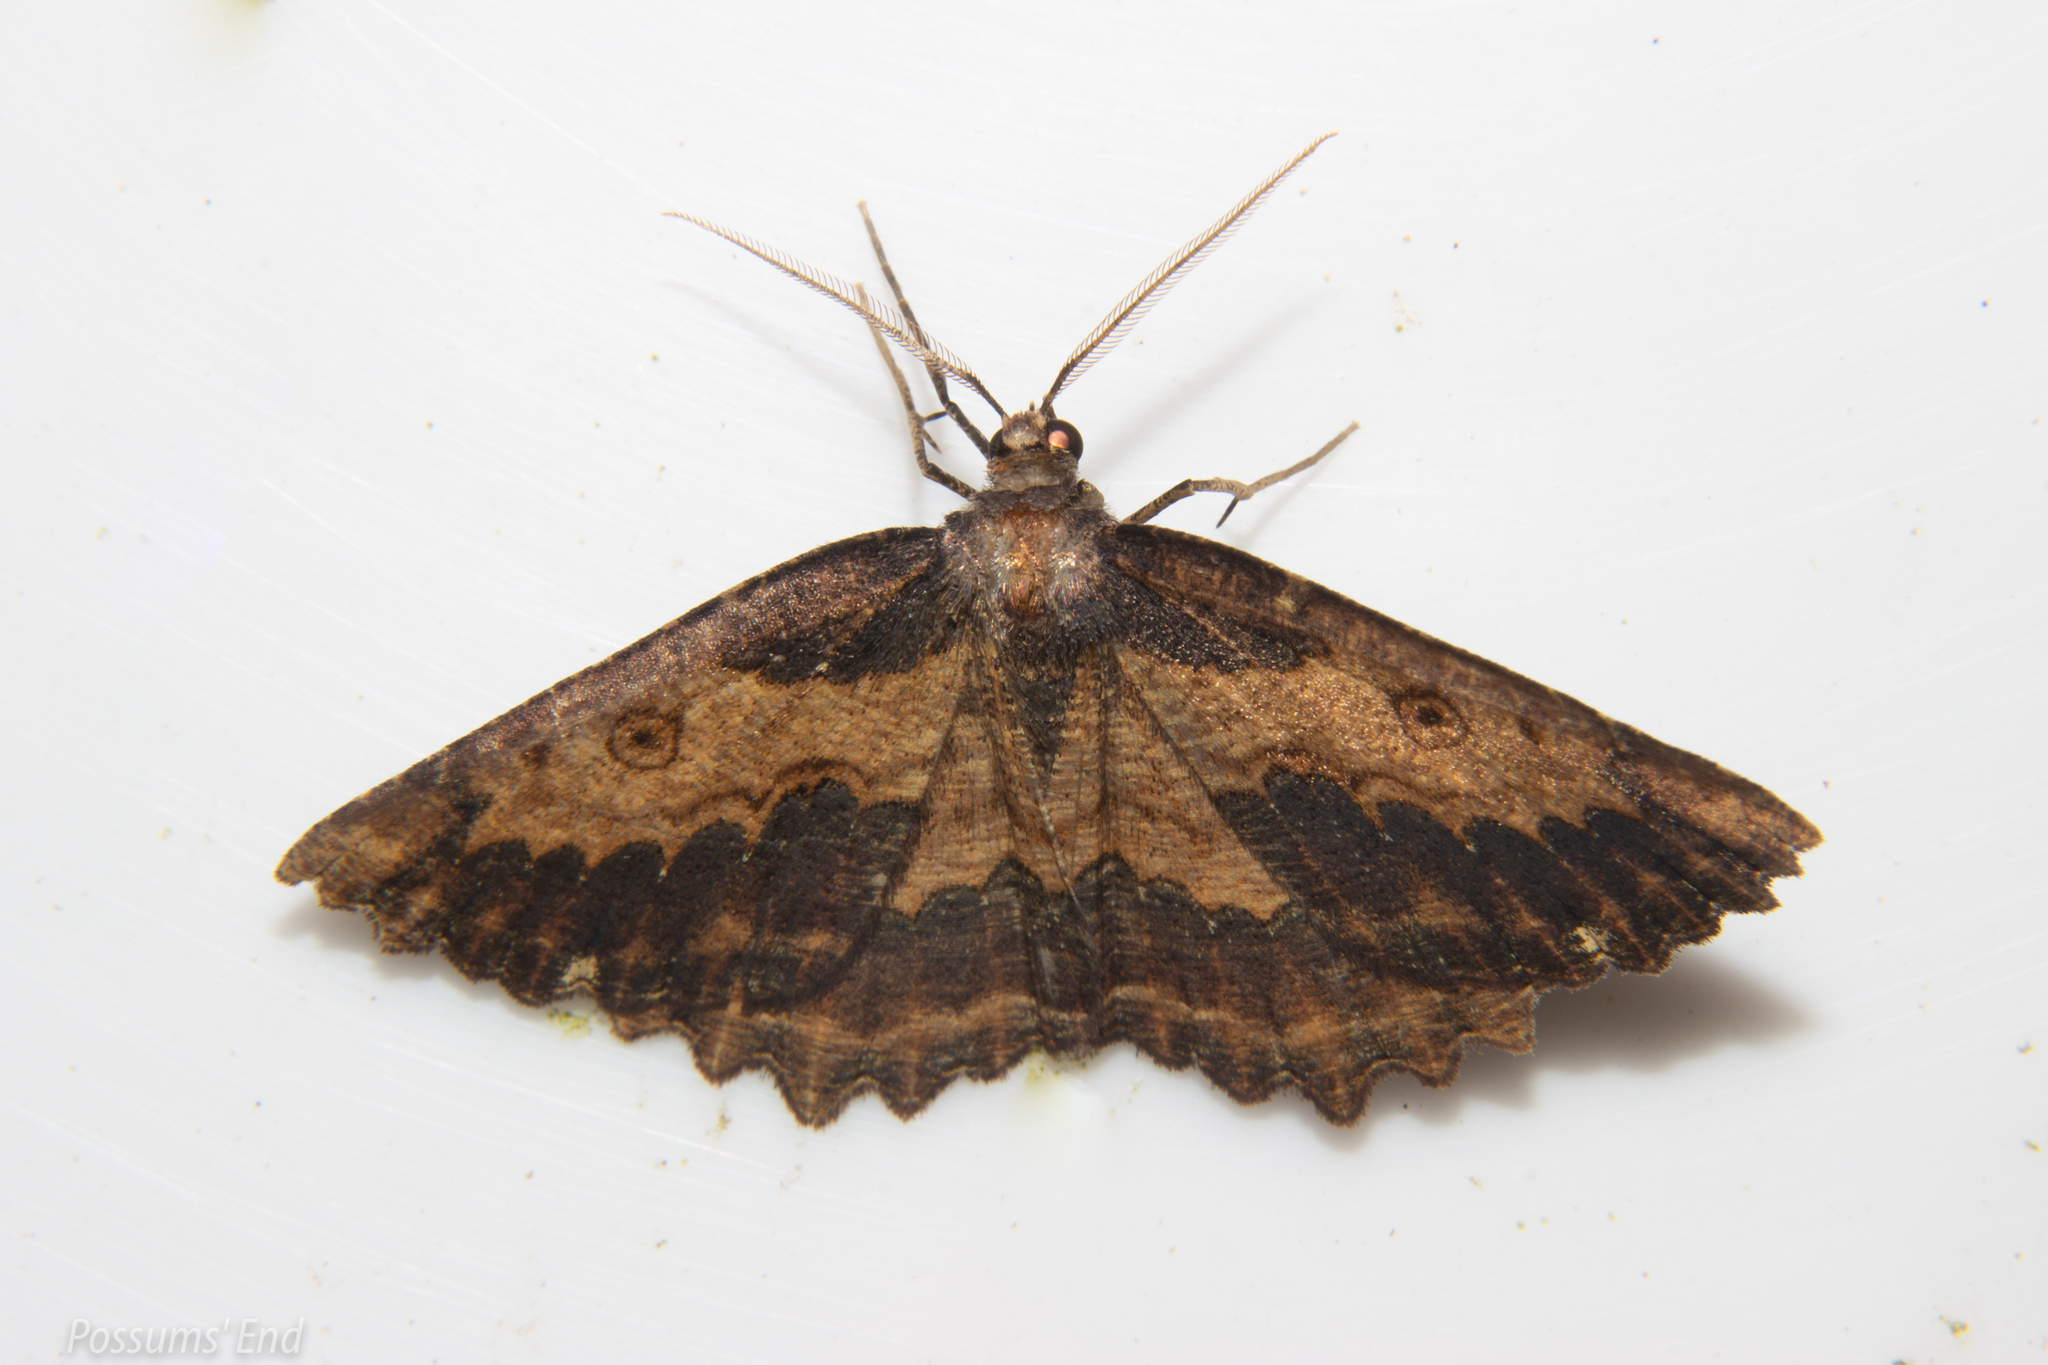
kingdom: Animalia
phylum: Arthropoda
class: Insecta
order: Lepidoptera
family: Geometridae
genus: Gellonia
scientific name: Gellonia pannularia
